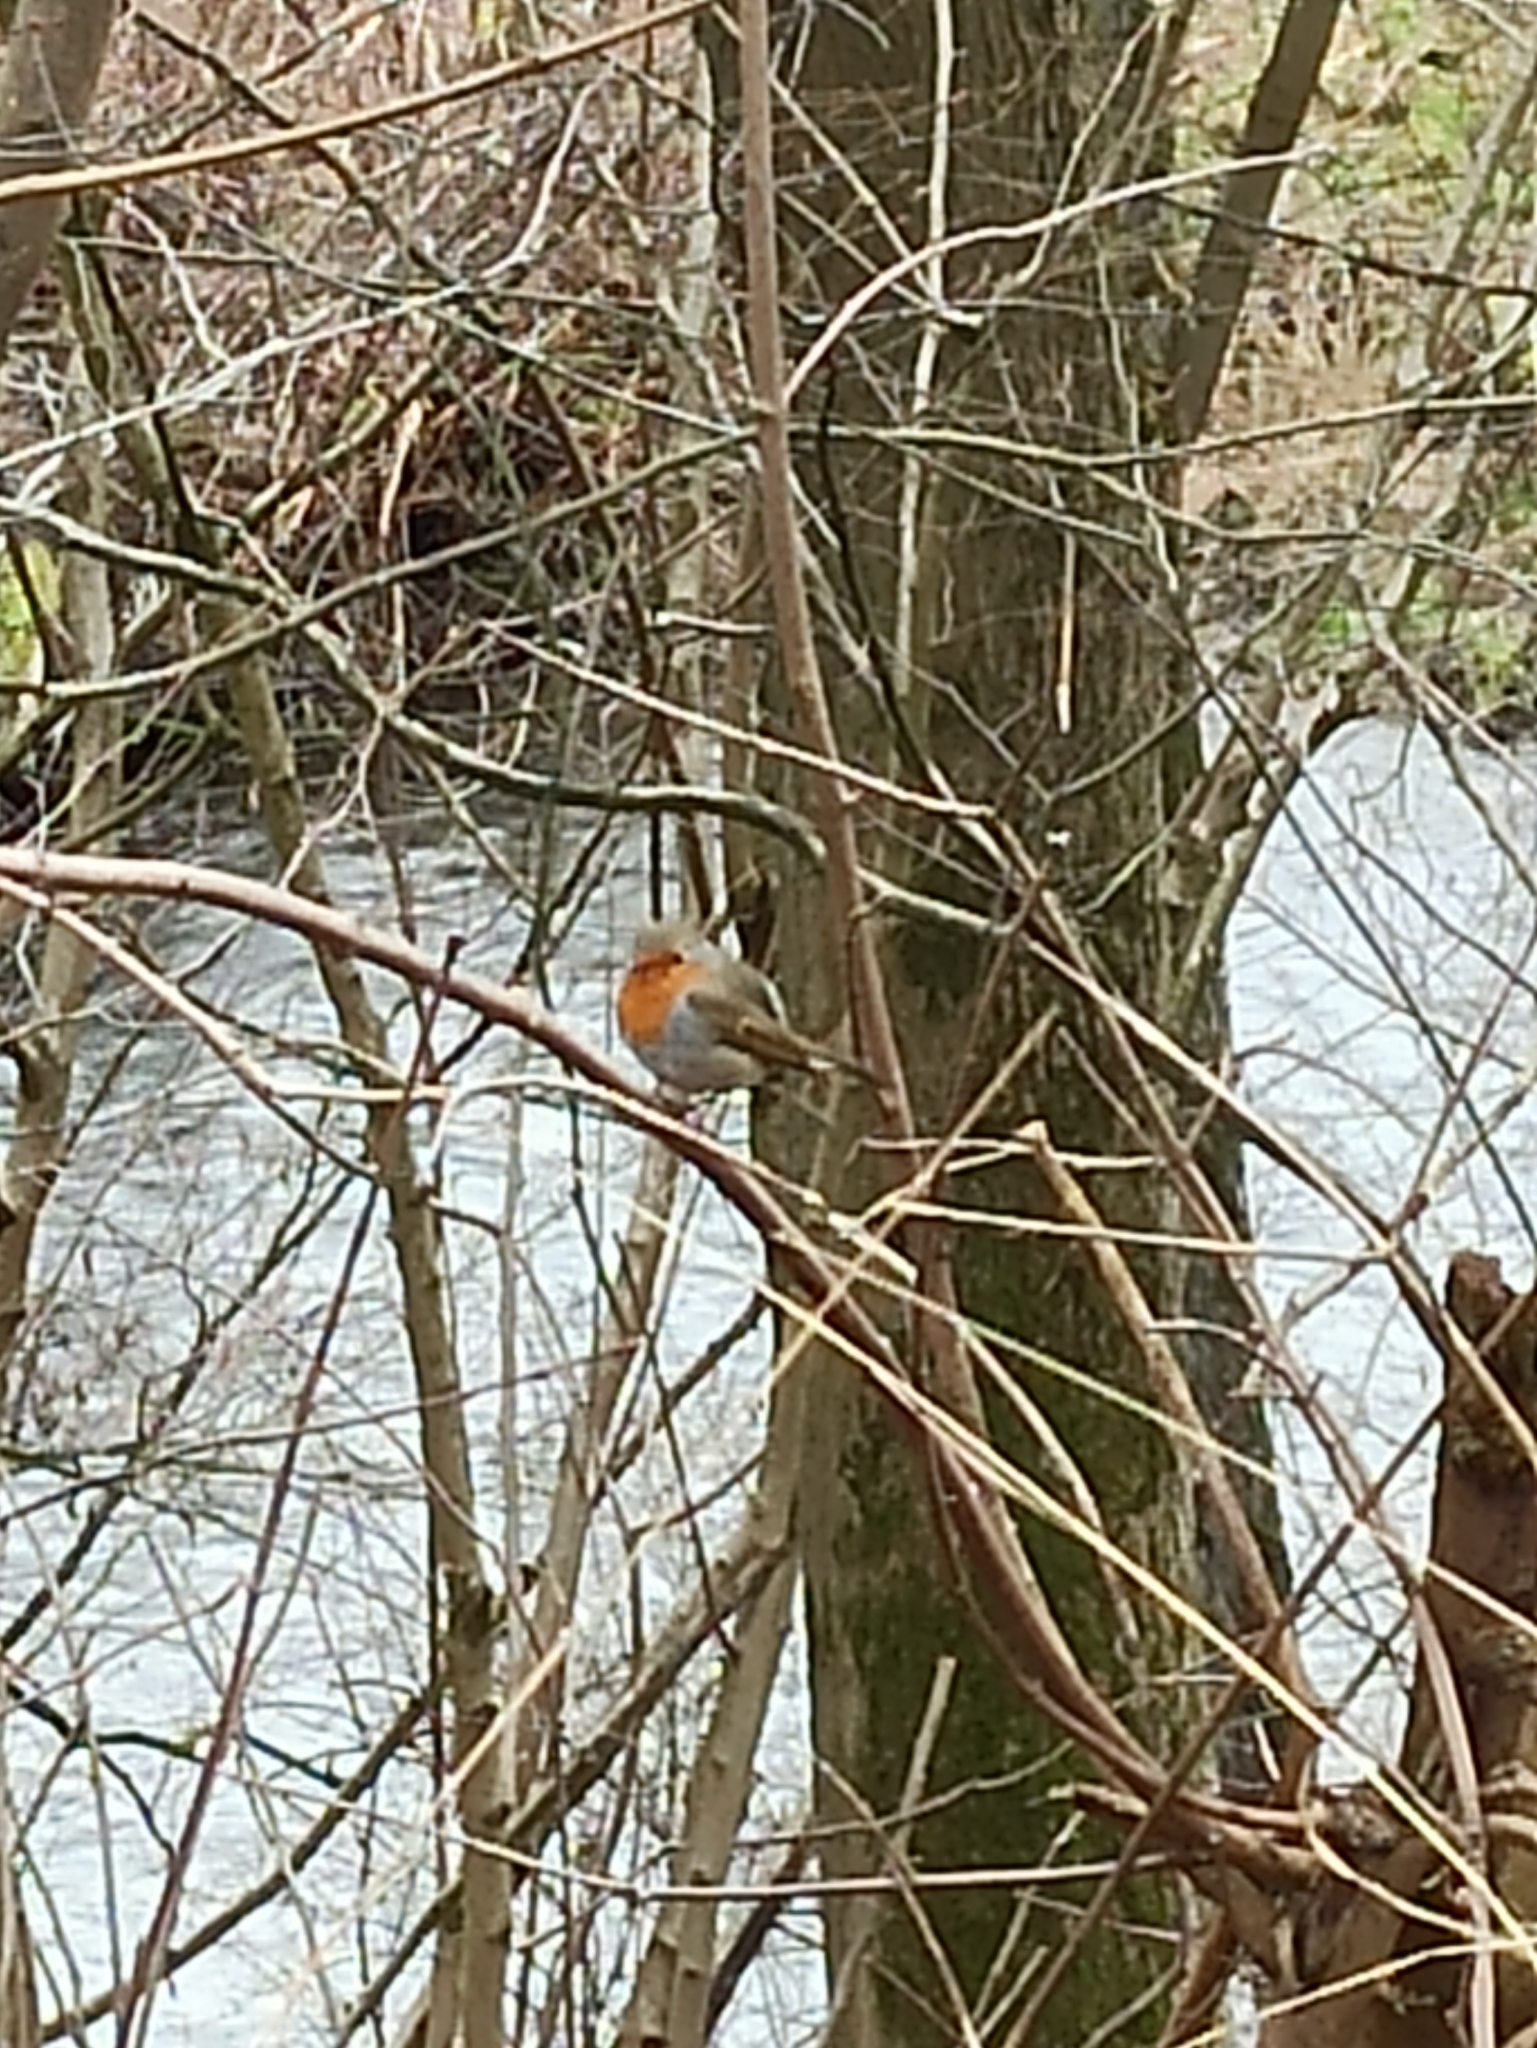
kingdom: Animalia
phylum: Chordata
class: Aves
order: Passeriformes
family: Muscicapidae
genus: Erithacus
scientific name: Erithacus rubecula
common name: European robin
